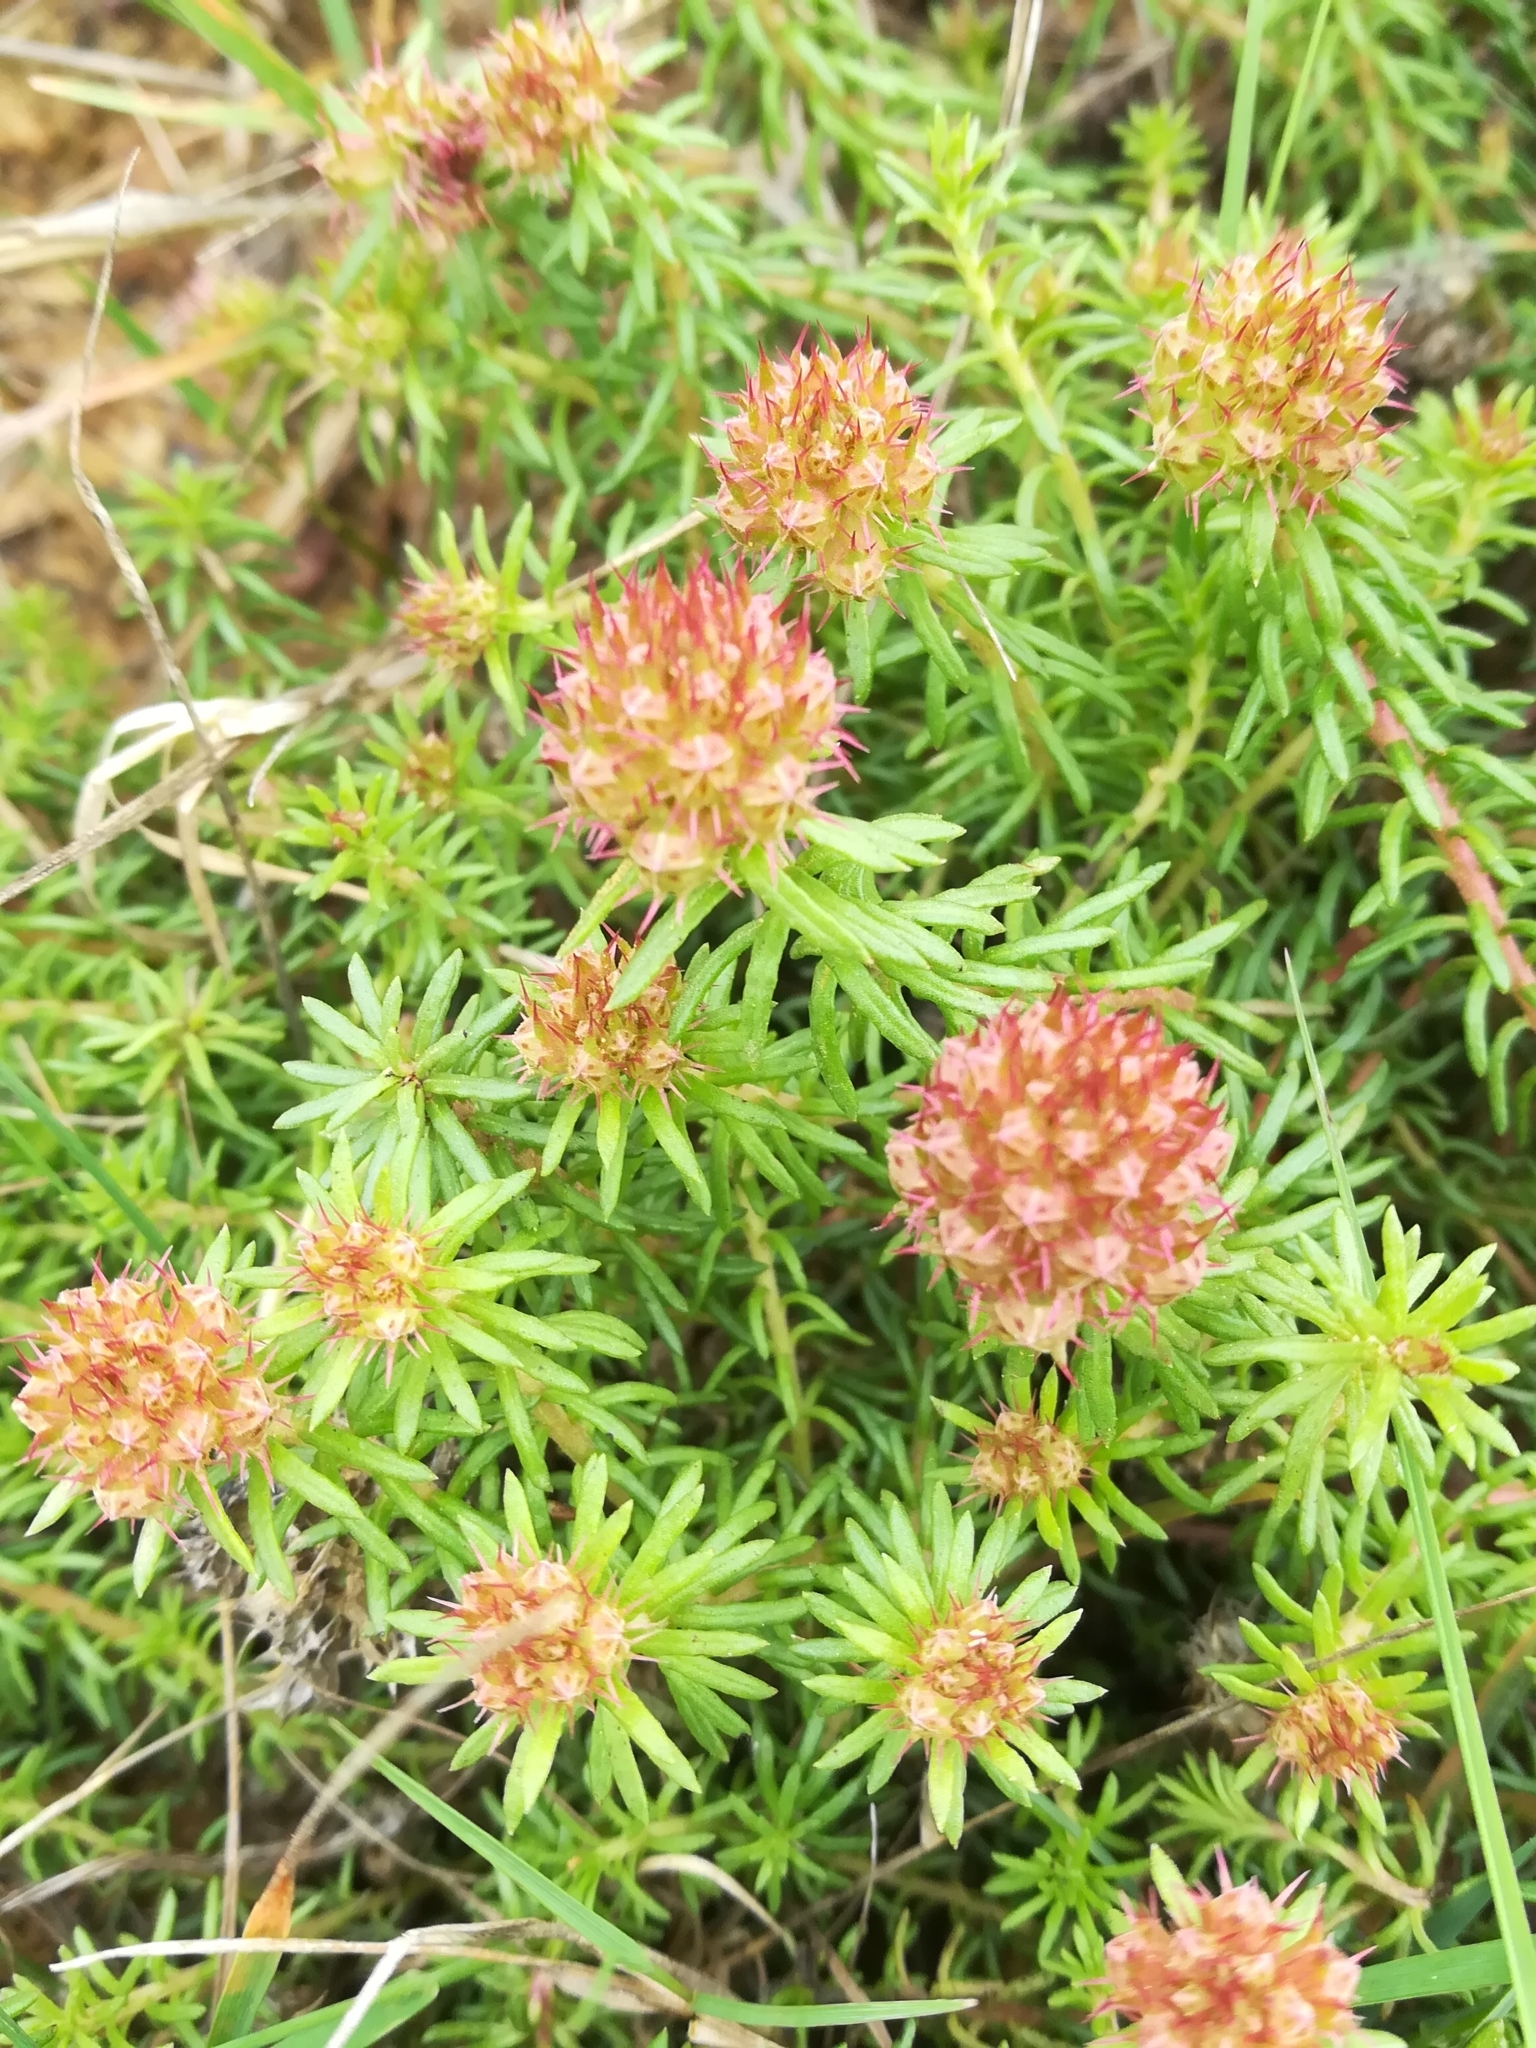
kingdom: Plantae
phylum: Tracheophyta
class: Magnoliopsida
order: Ericales
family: Primulaceae
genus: Coris
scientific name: Coris monspeliensis
